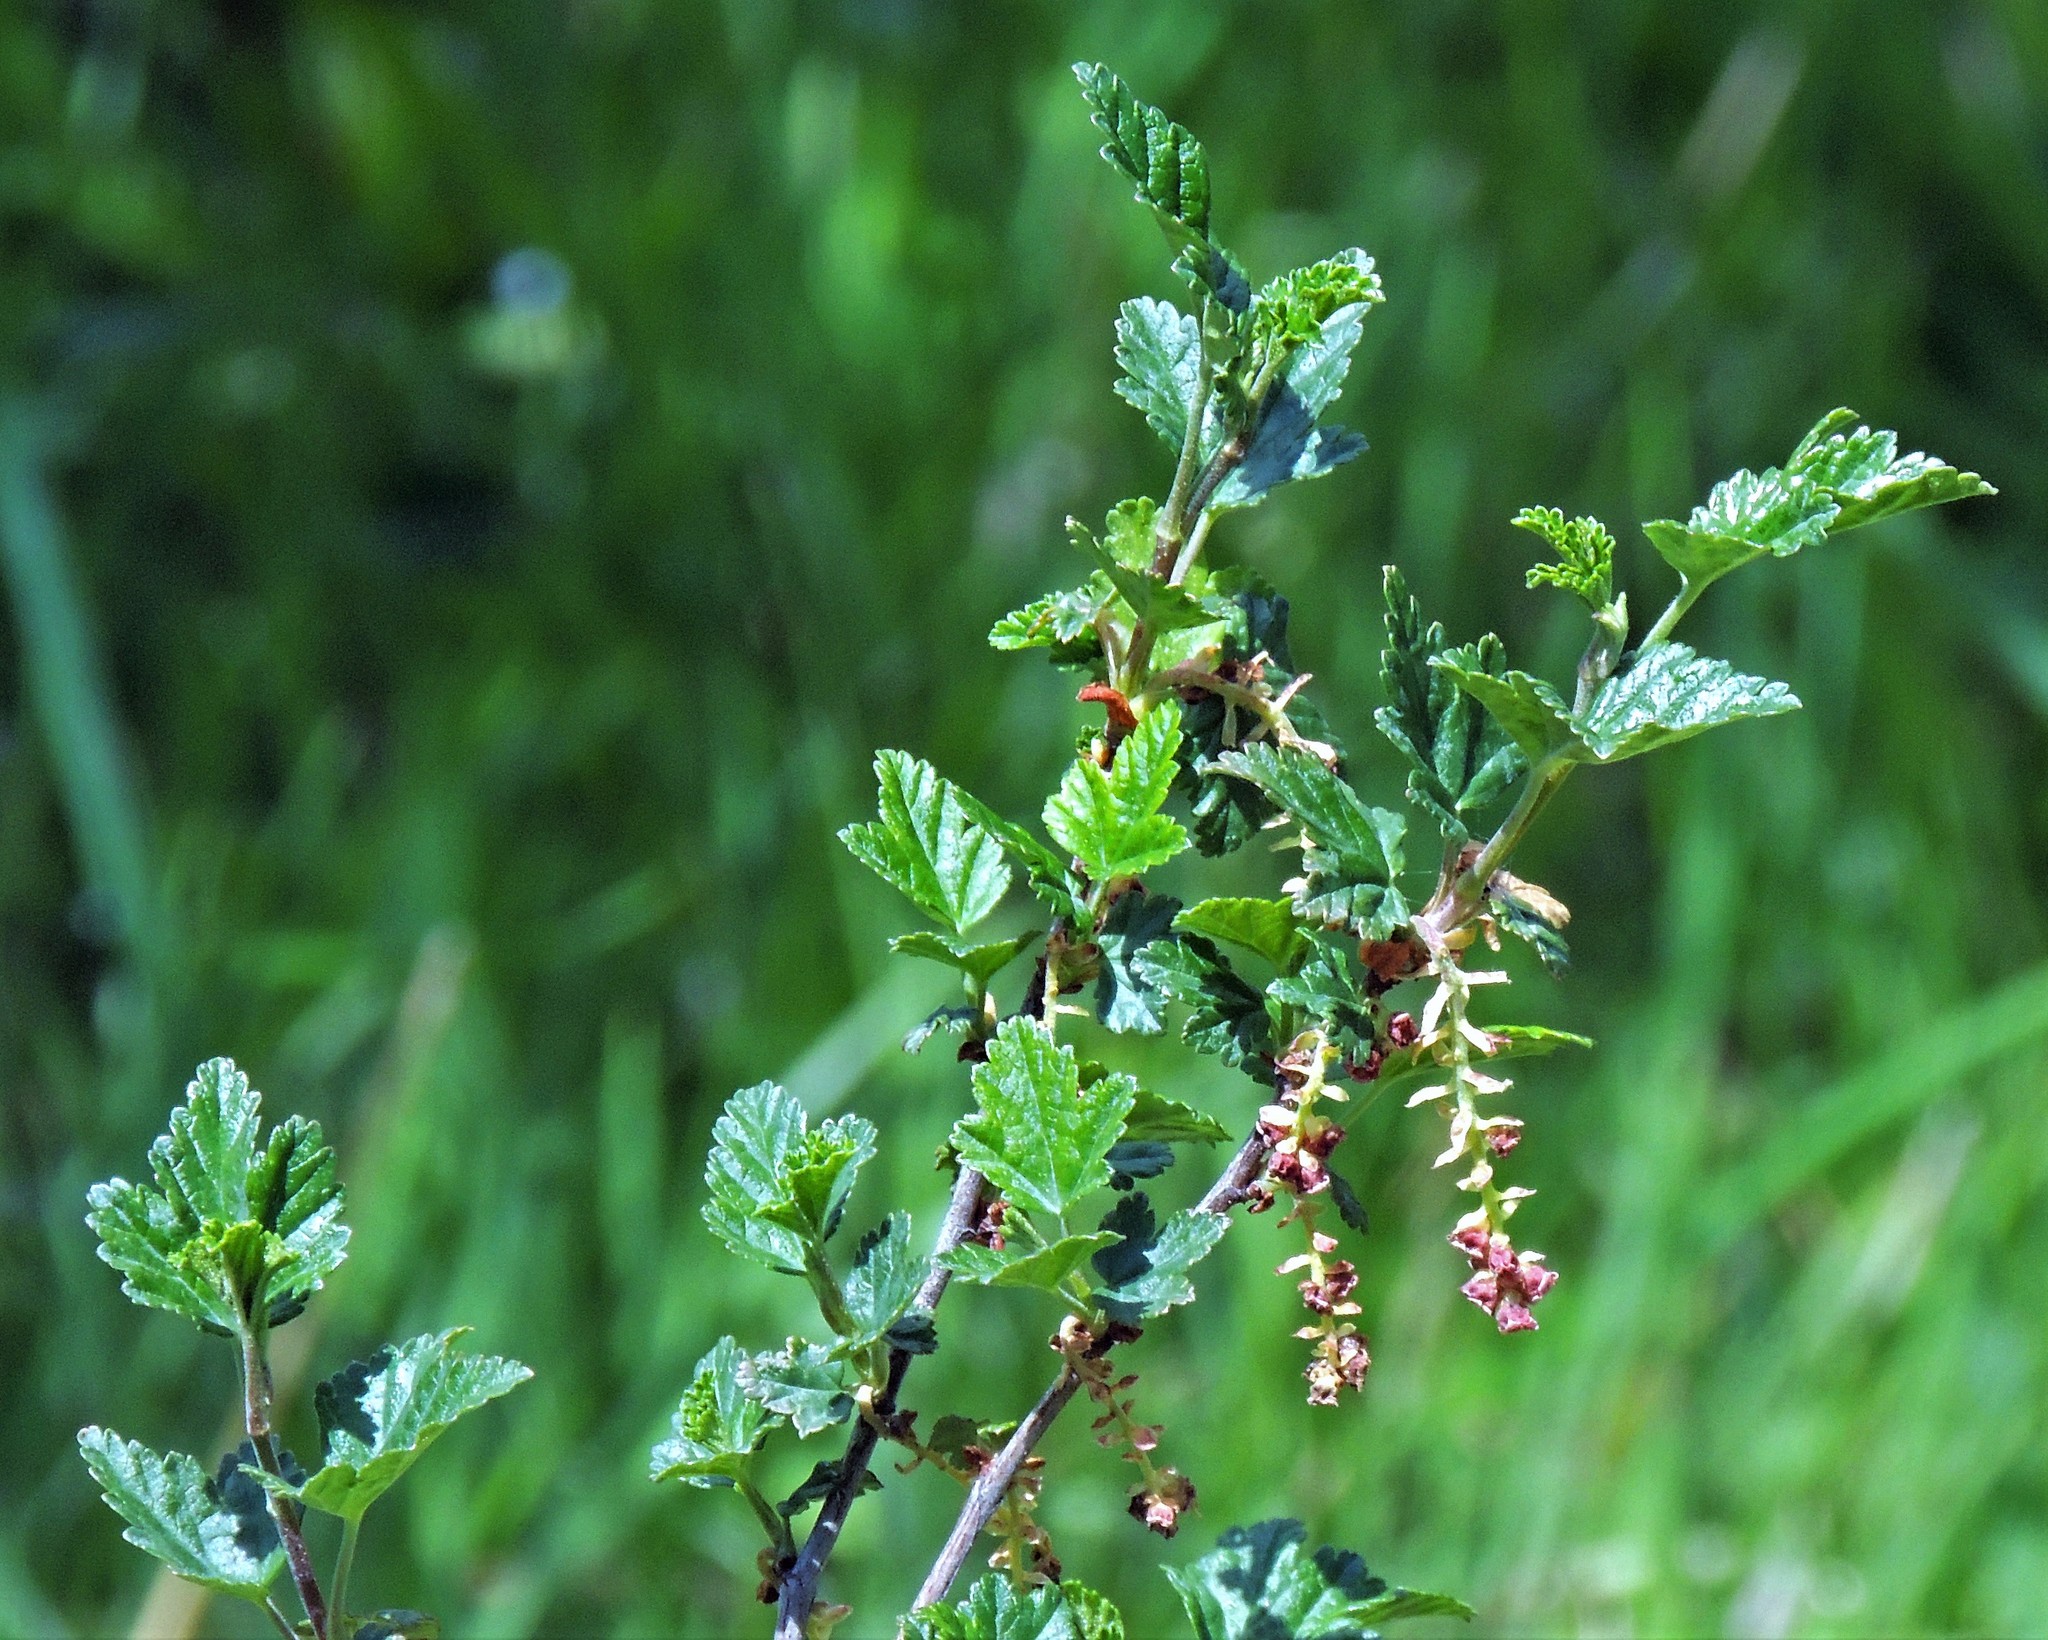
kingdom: Plantae
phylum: Tracheophyta
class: Magnoliopsida
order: Saxifragales
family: Grossulariaceae
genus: Ribes
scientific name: Ribes magellanicum
